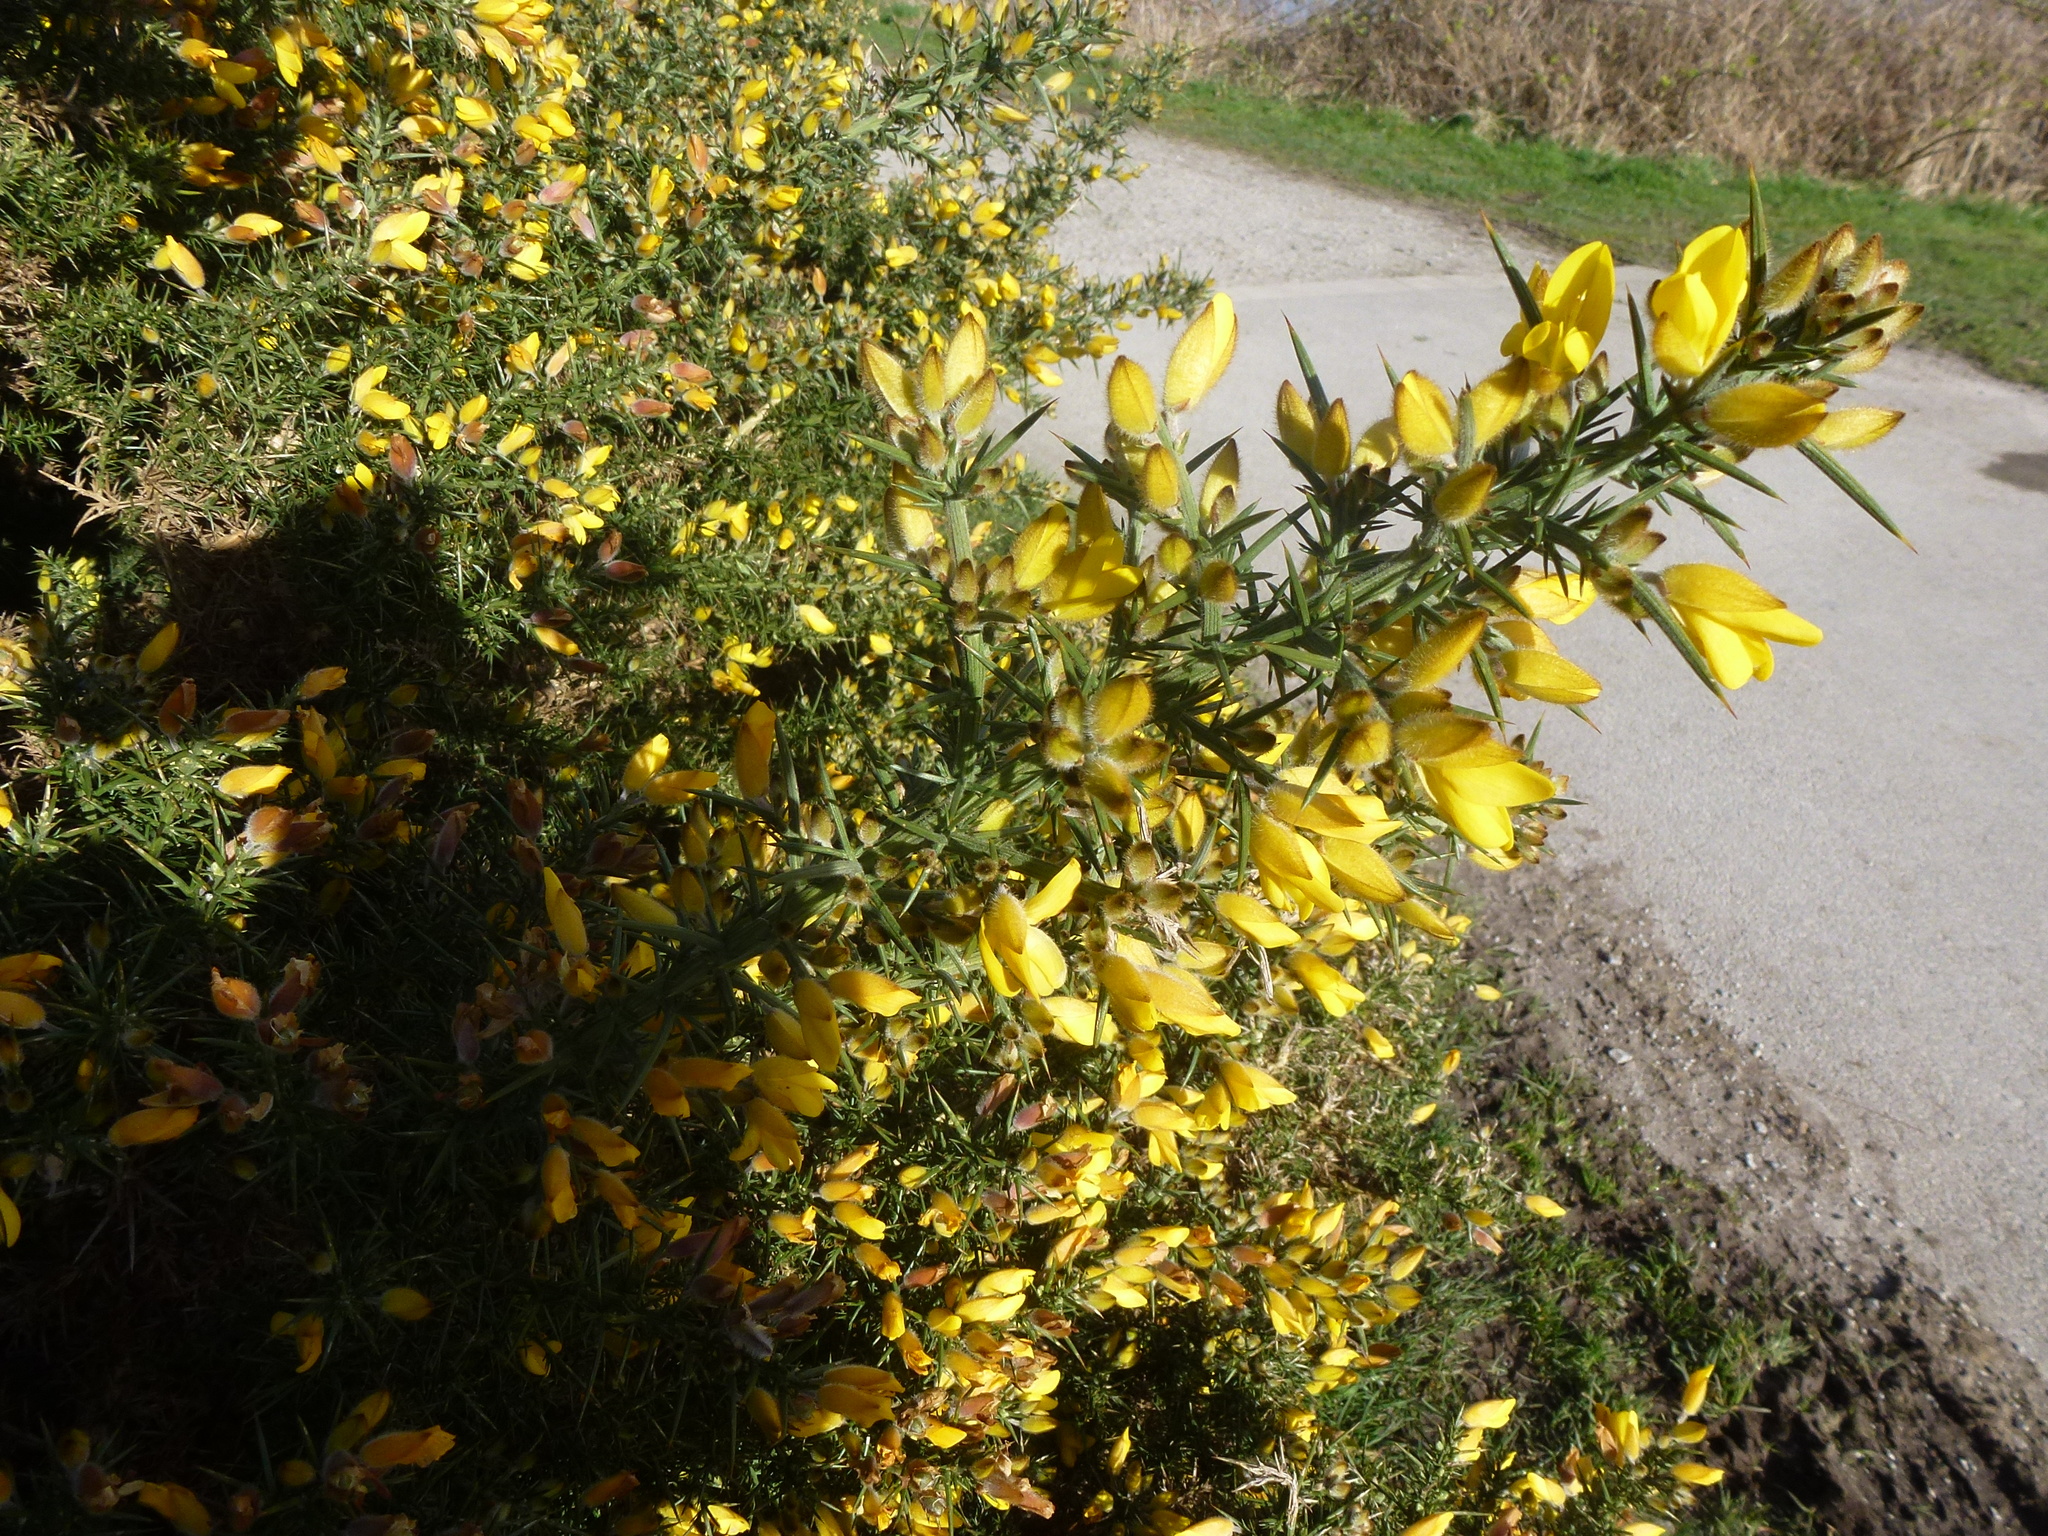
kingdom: Plantae
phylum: Tracheophyta
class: Magnoliopsida
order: Fabales
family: Fabaceae
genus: Ulex
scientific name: Ulex europaeus
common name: Common gorse
